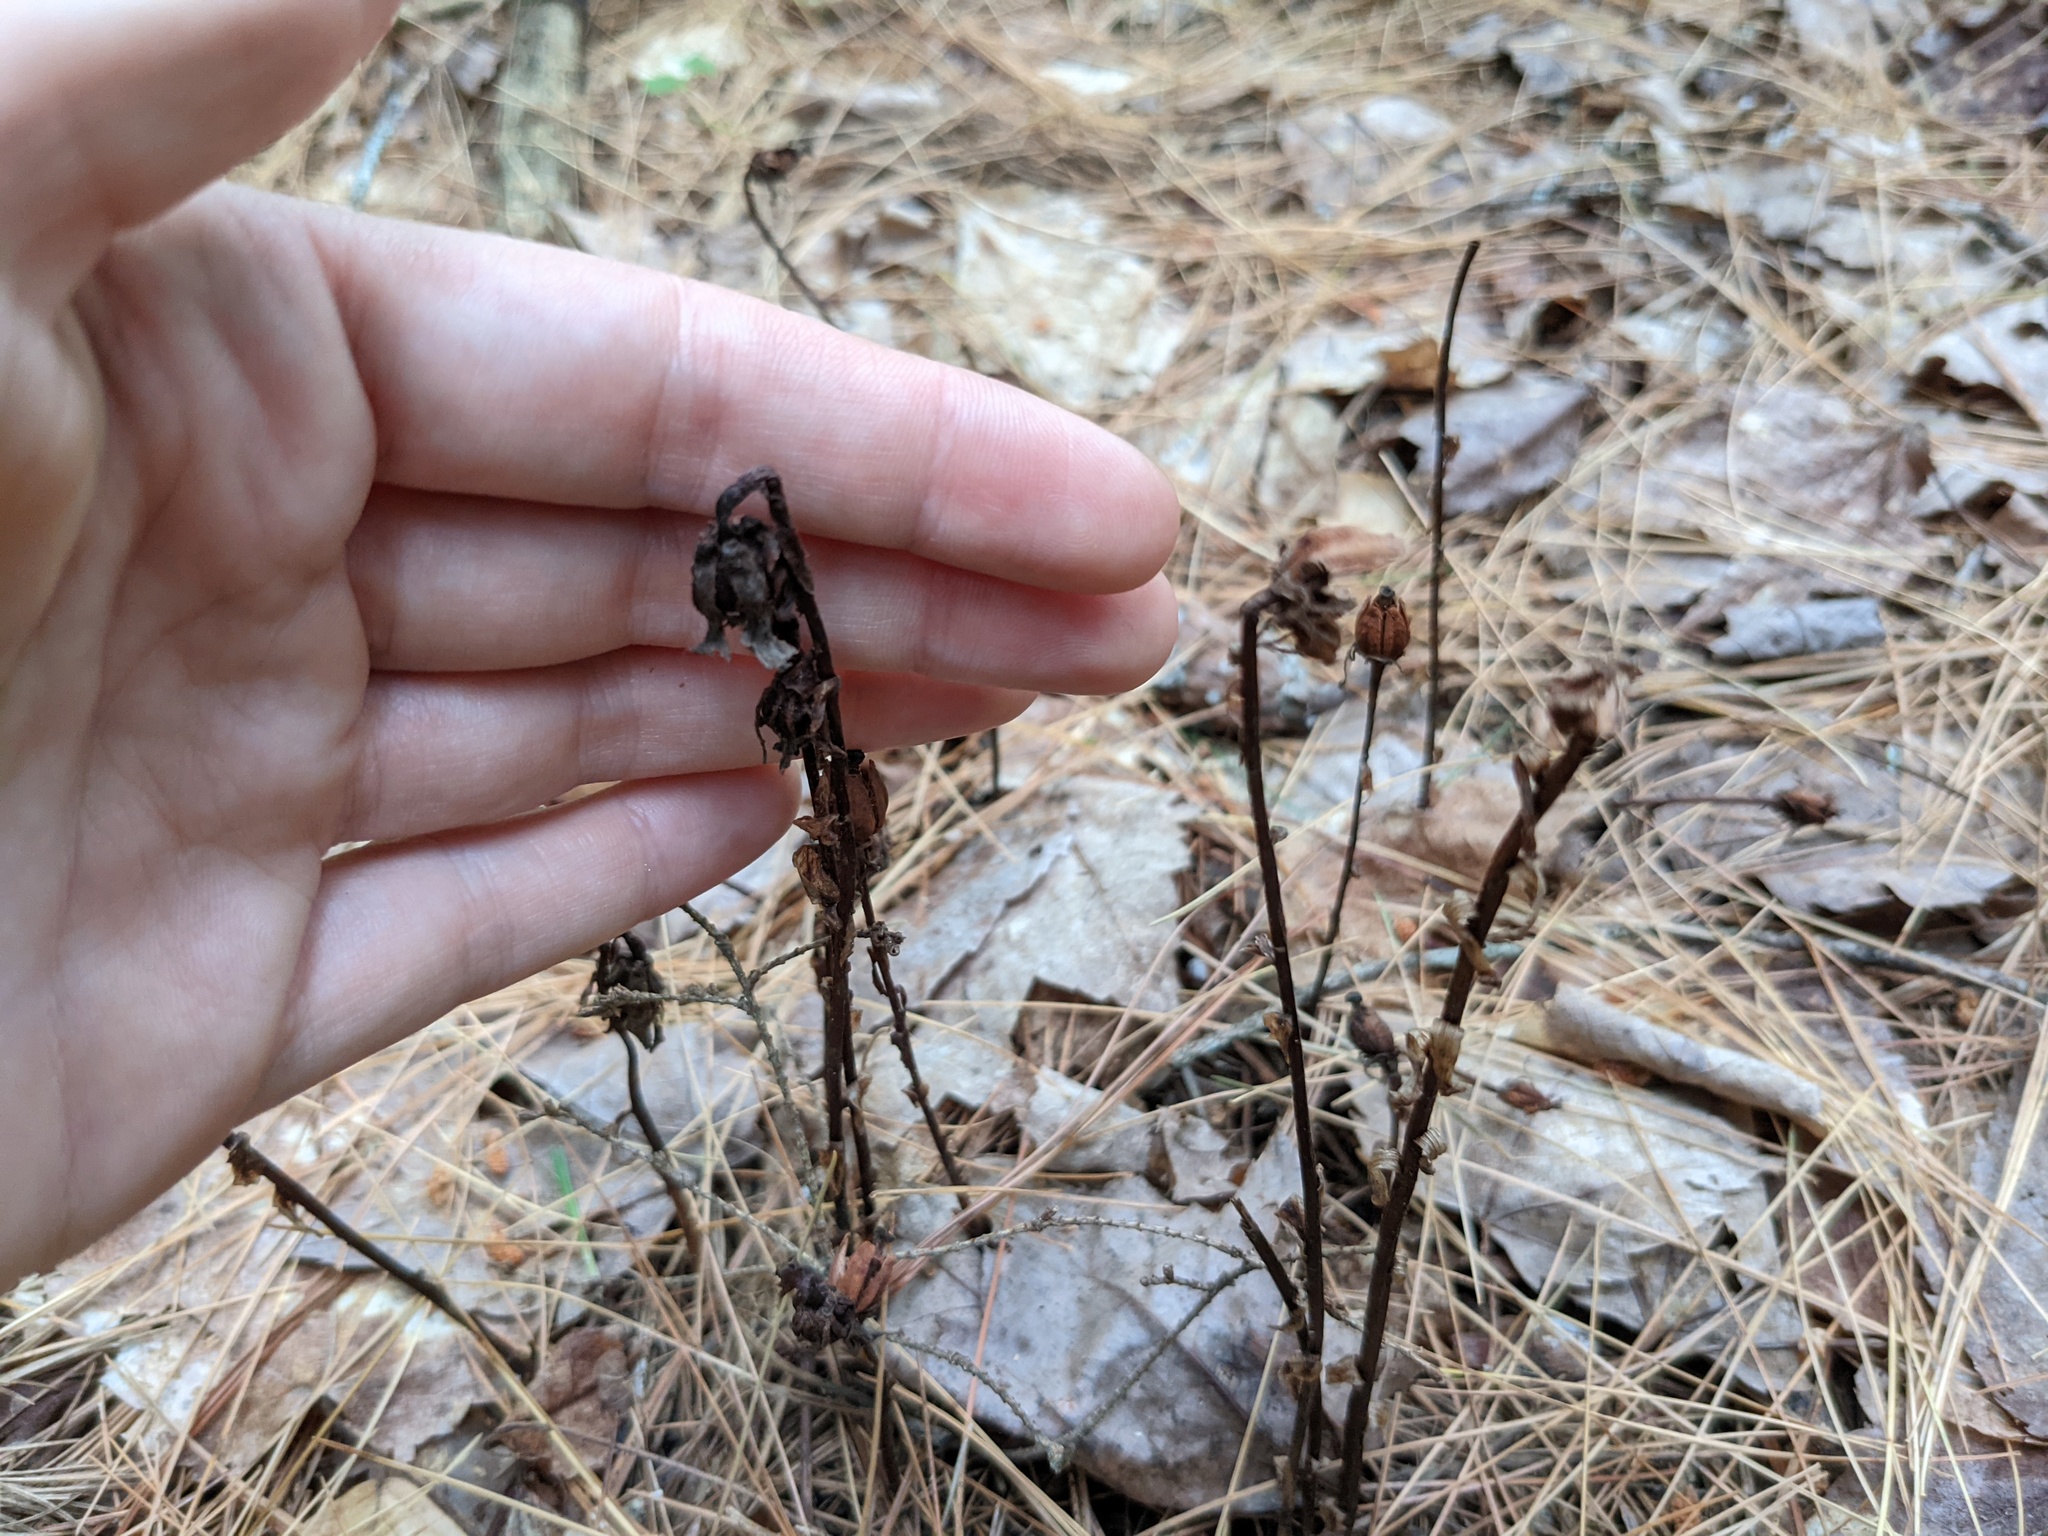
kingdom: Plantae
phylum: Tracheophyta
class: Magnoliopsida
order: Ericales
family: Ericaceae
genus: Monotropa
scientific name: Monotropa uniflora
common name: Convulsion root
